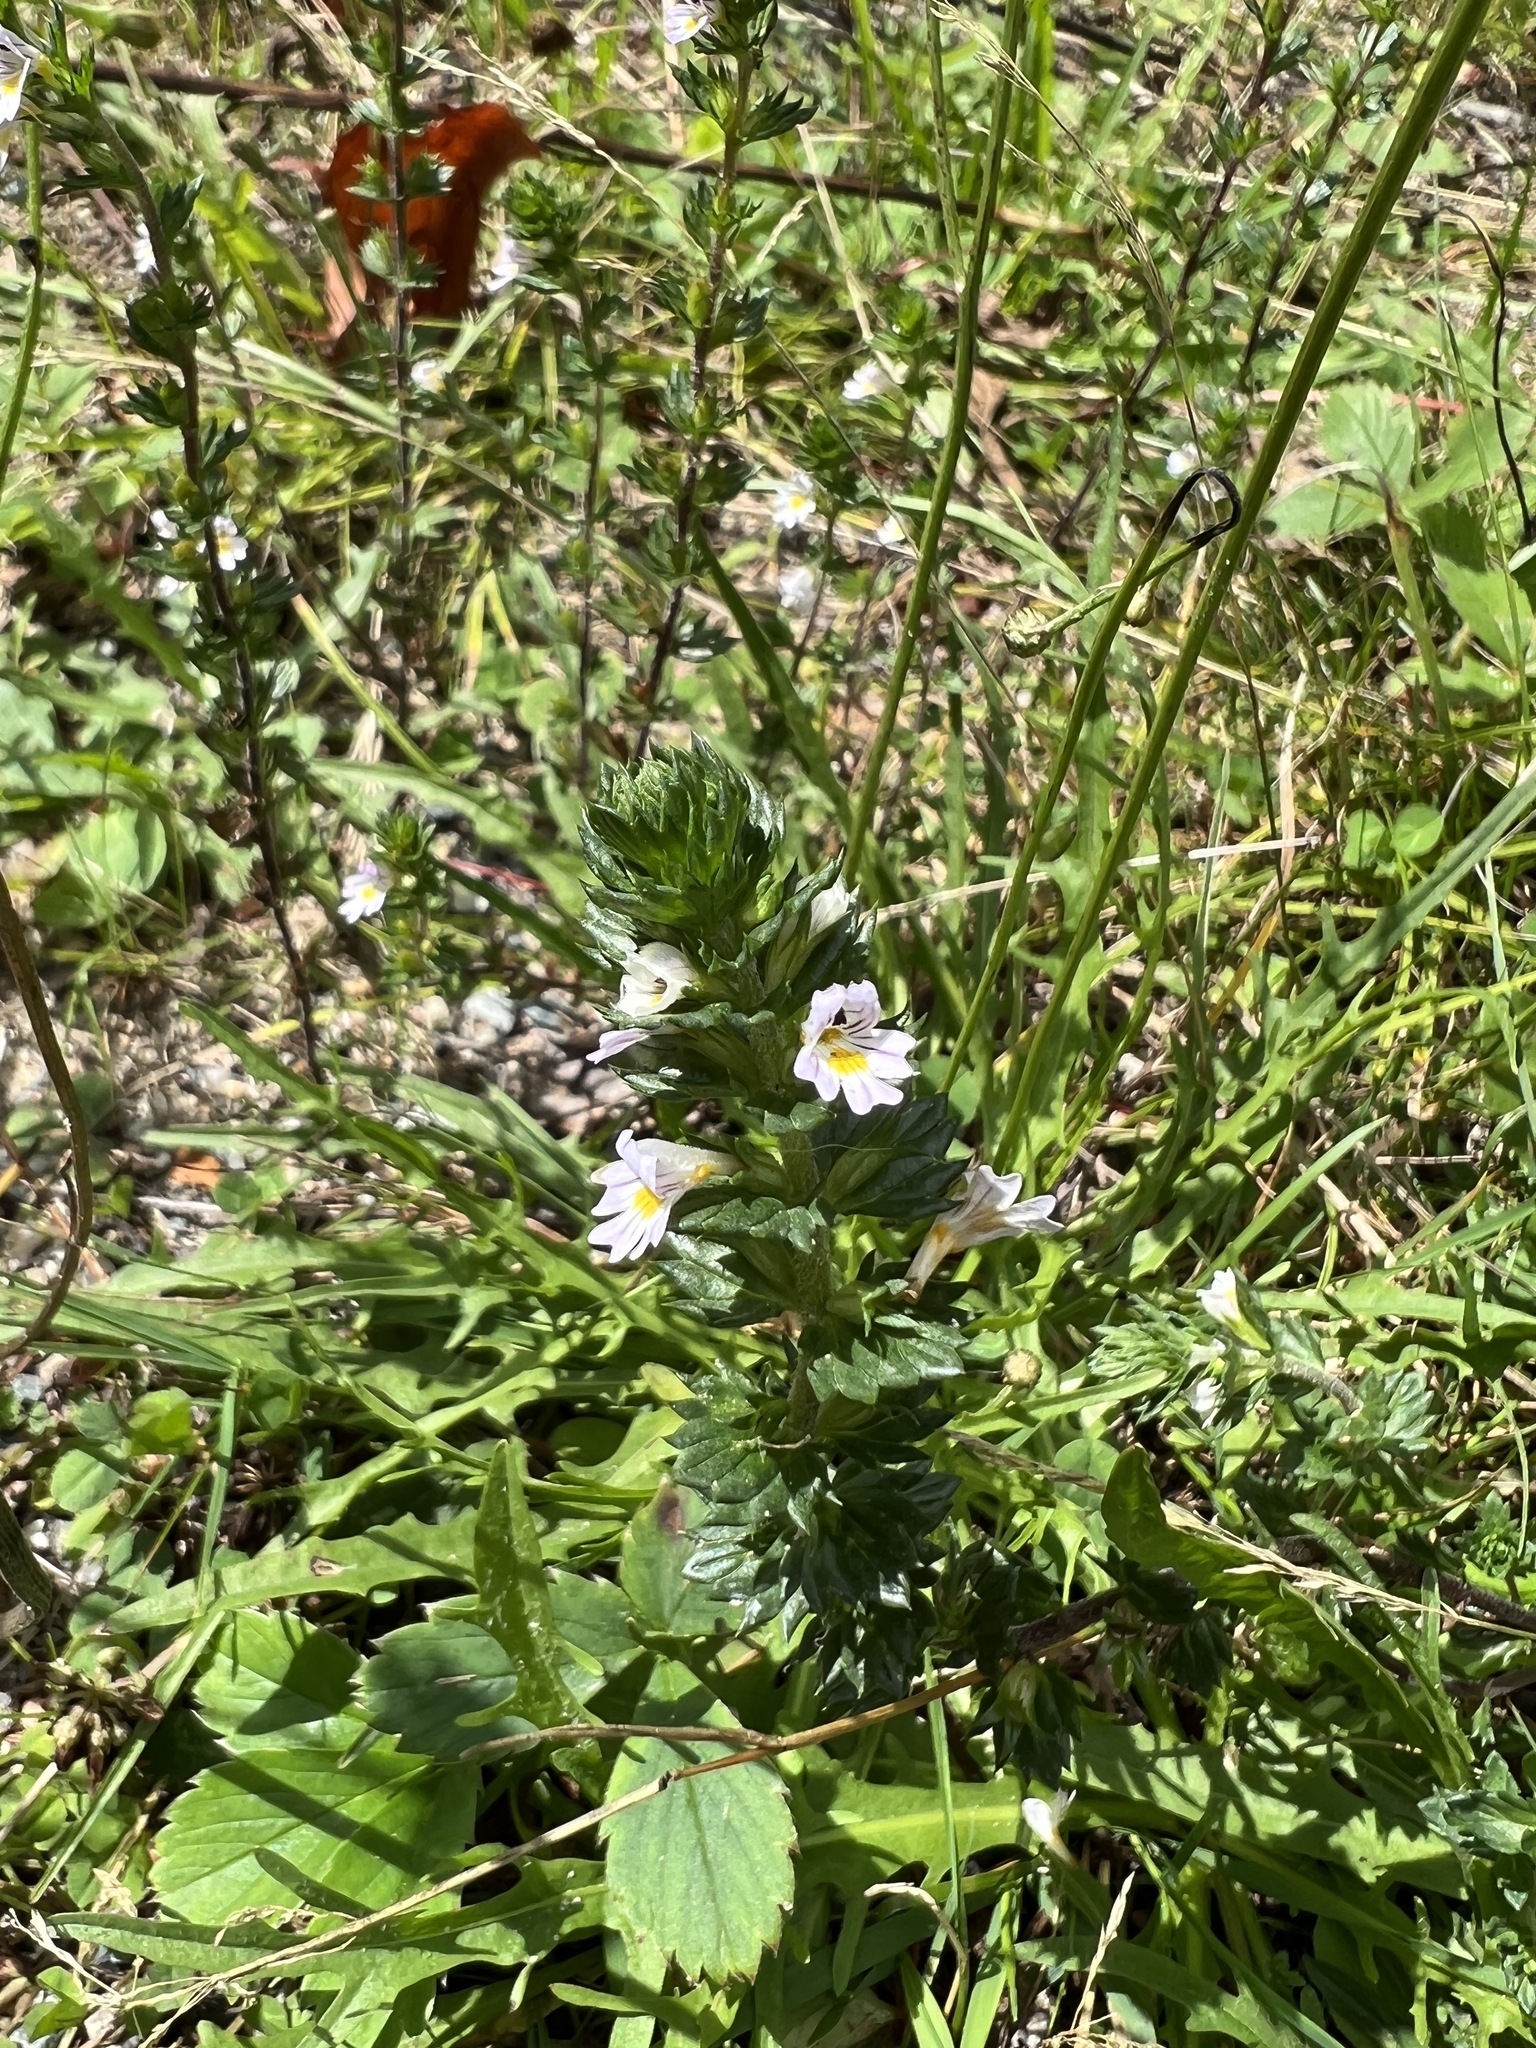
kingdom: Plantae
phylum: Tracheophyta
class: Magnoliopsida
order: Lamiales
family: Orobanchaceae
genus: Euphrasia
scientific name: Euphrasia nemorosa
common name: Common eyebright
